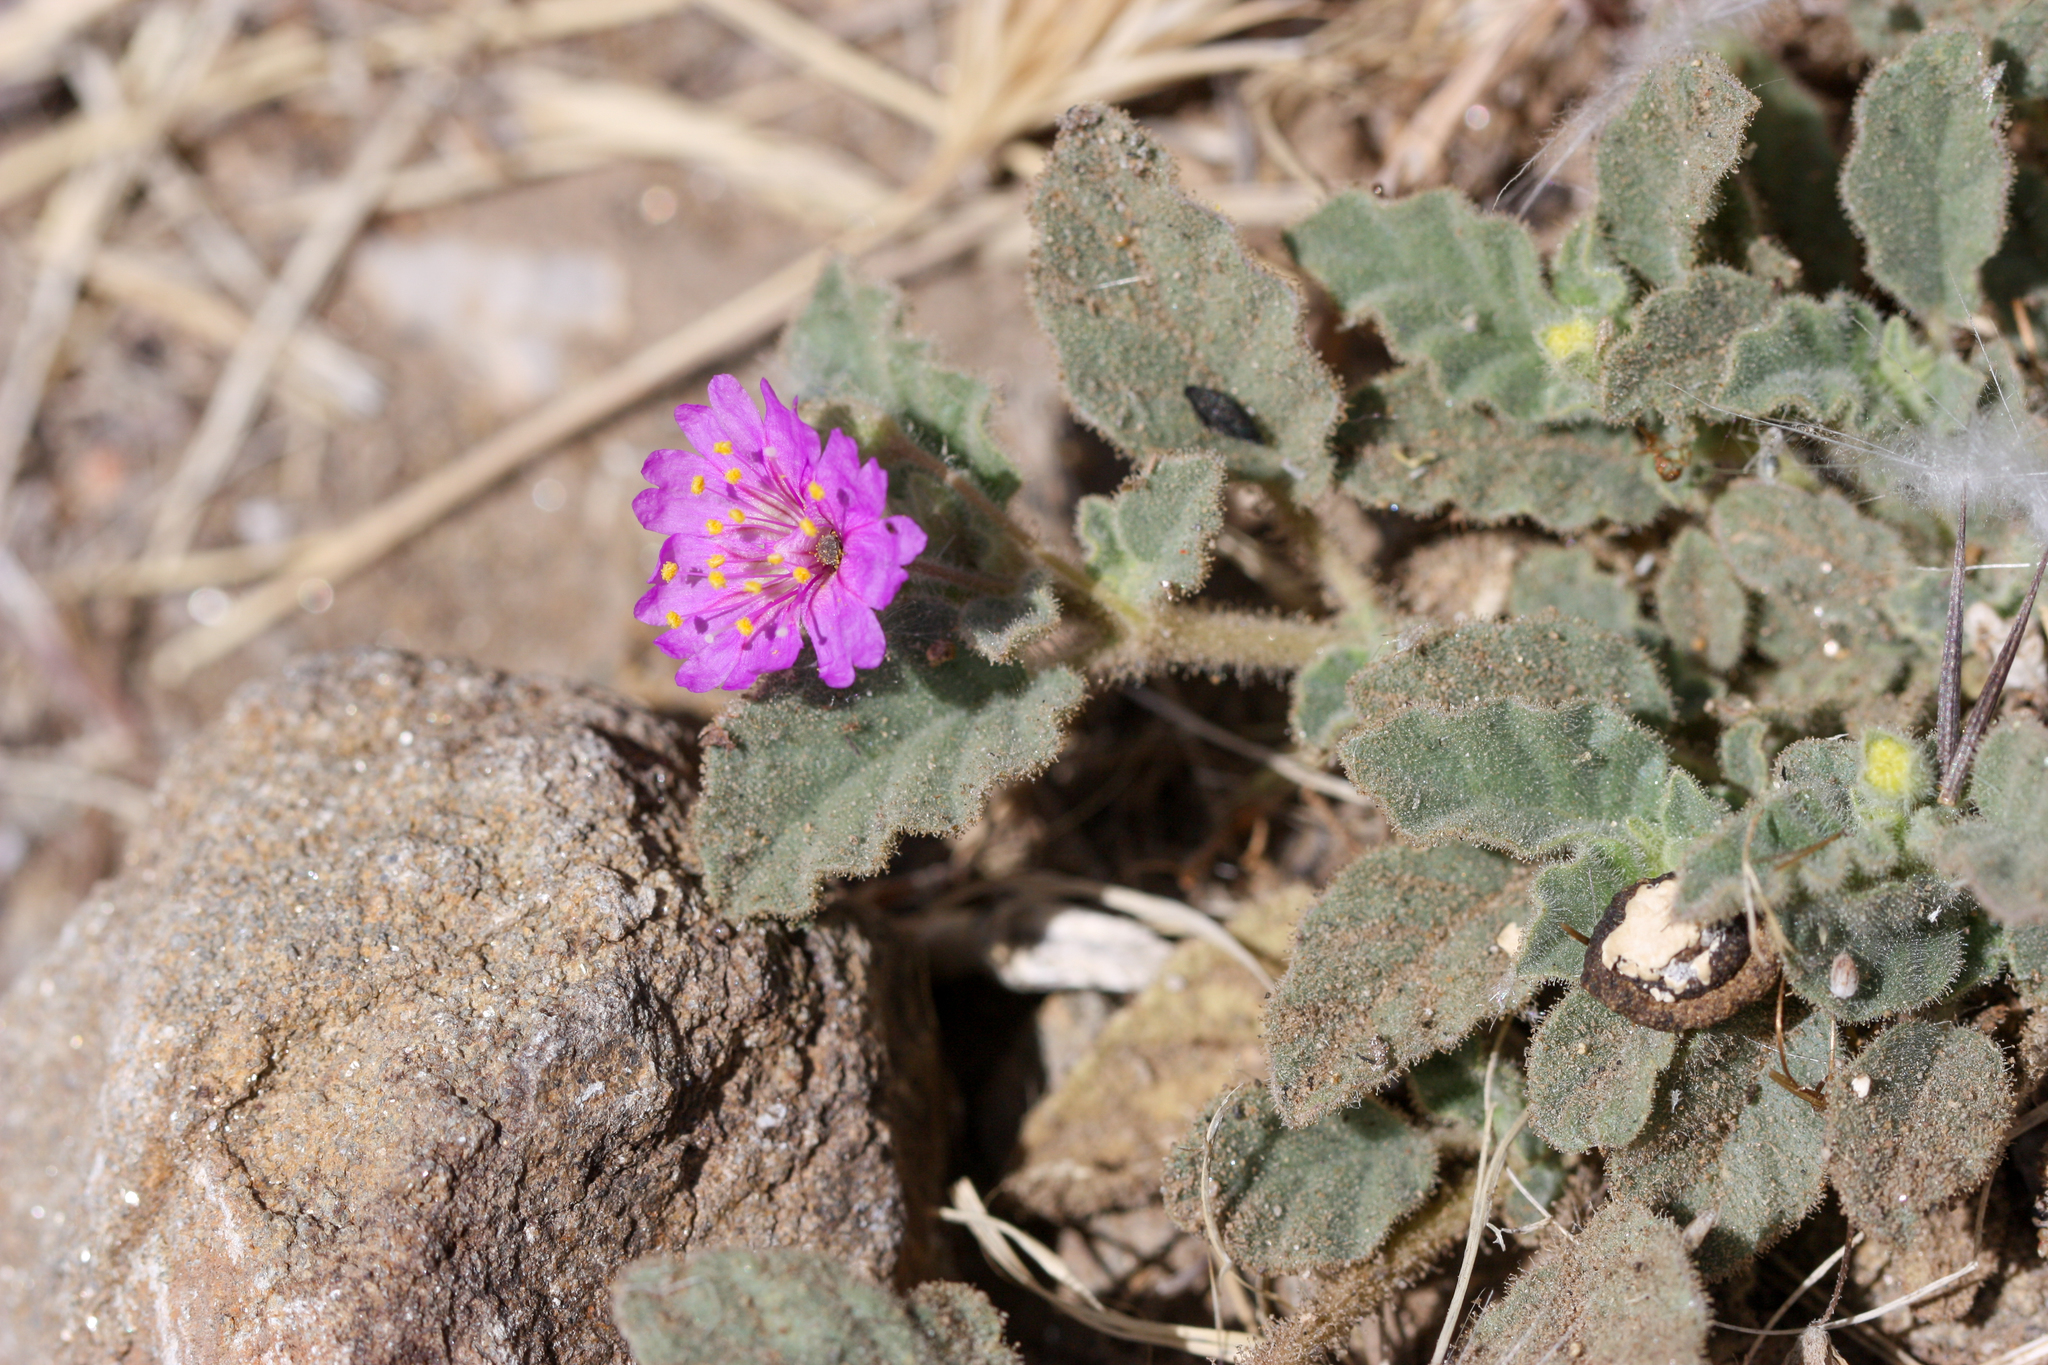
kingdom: Plantae
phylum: Tracheophyta
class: Magnoliopsida
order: Caryophyllales
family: Nyctaginaceae
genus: Allionia
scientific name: Allionia incarnata
